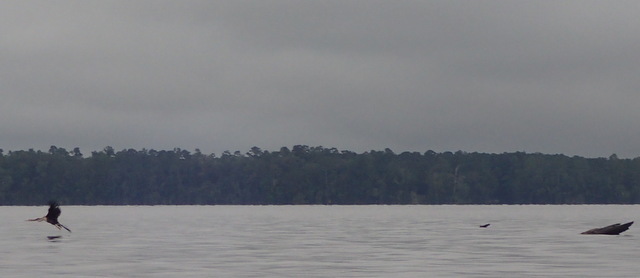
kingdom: Animalia
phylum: Chordata
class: Aves
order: Suliformes
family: Anhingidae
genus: Anhinga
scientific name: Anhinga anhinga
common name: Anhinga
